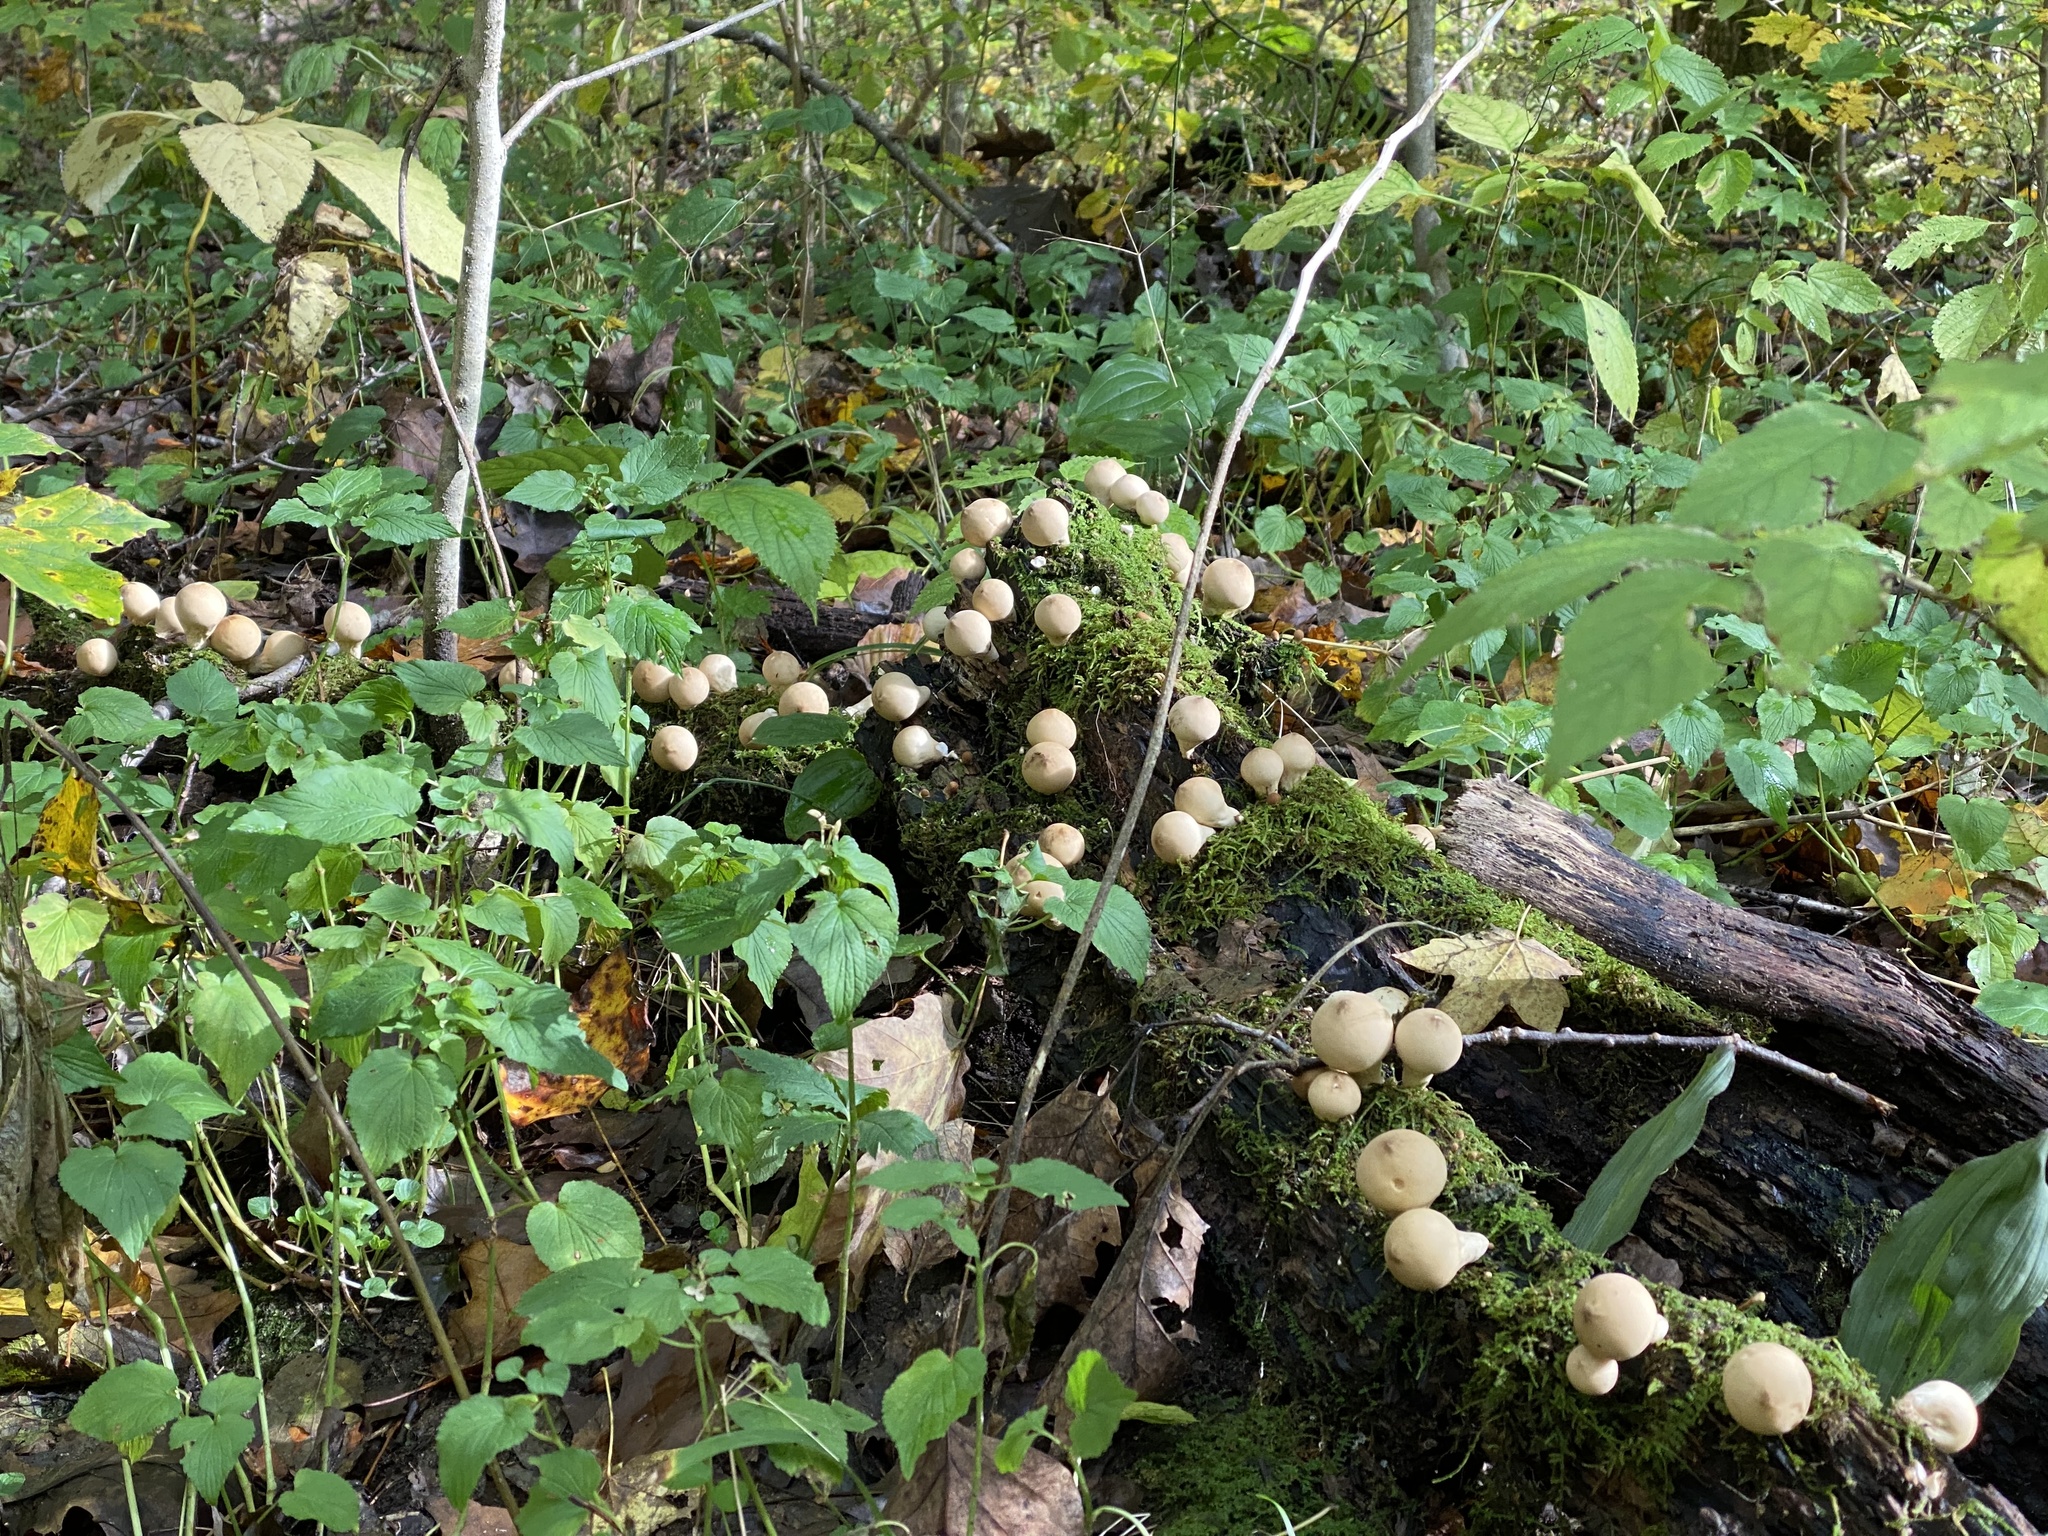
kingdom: Fungi
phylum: Basidiomycota
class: Agaricomycetes
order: Agaricales
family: Lycoperdaceae
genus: Apioperdon
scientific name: Apioperdon pyriforme
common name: Pear-shaped puffball
